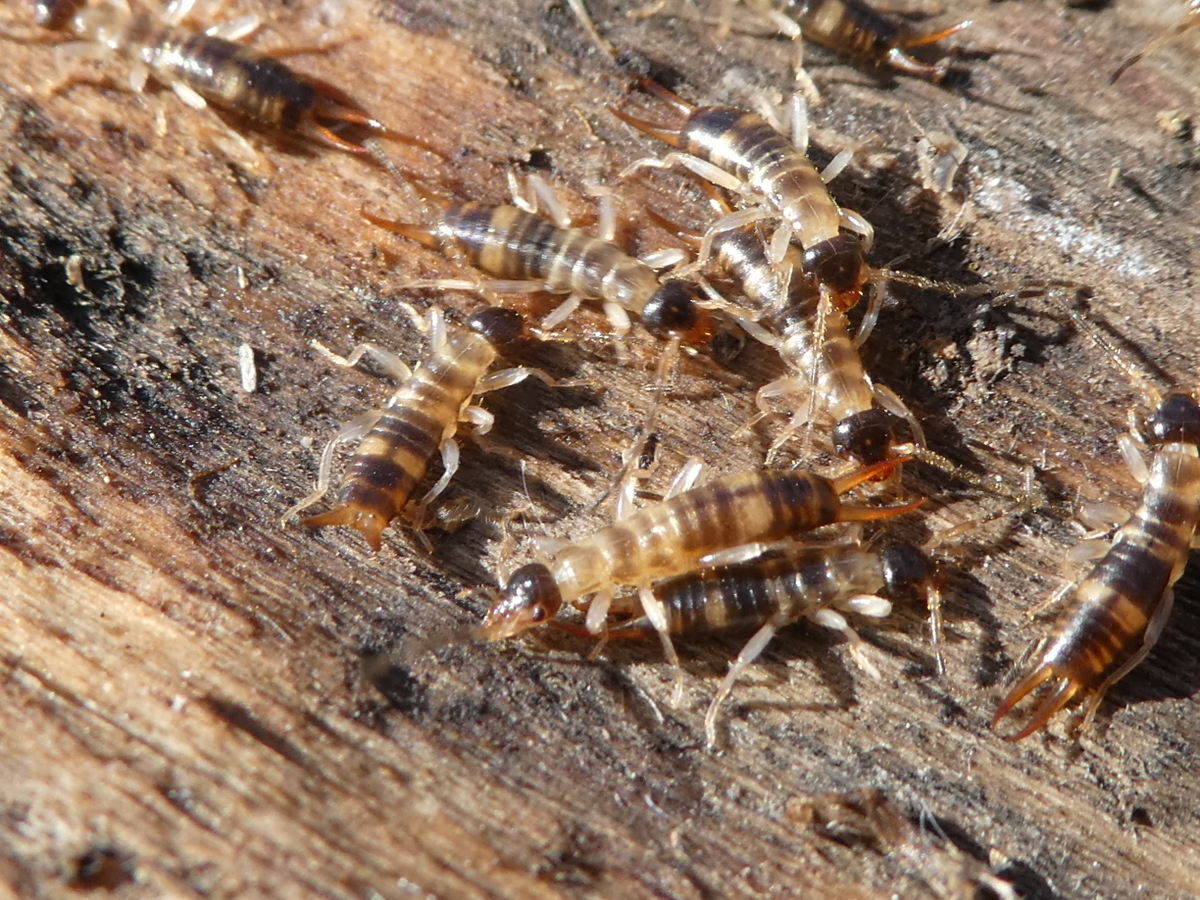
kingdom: Animalia
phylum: Arthropoda
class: Insecta
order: Dermaptera
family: Anisolabididae
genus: Anisolabis
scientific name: Anisolabis littorea
